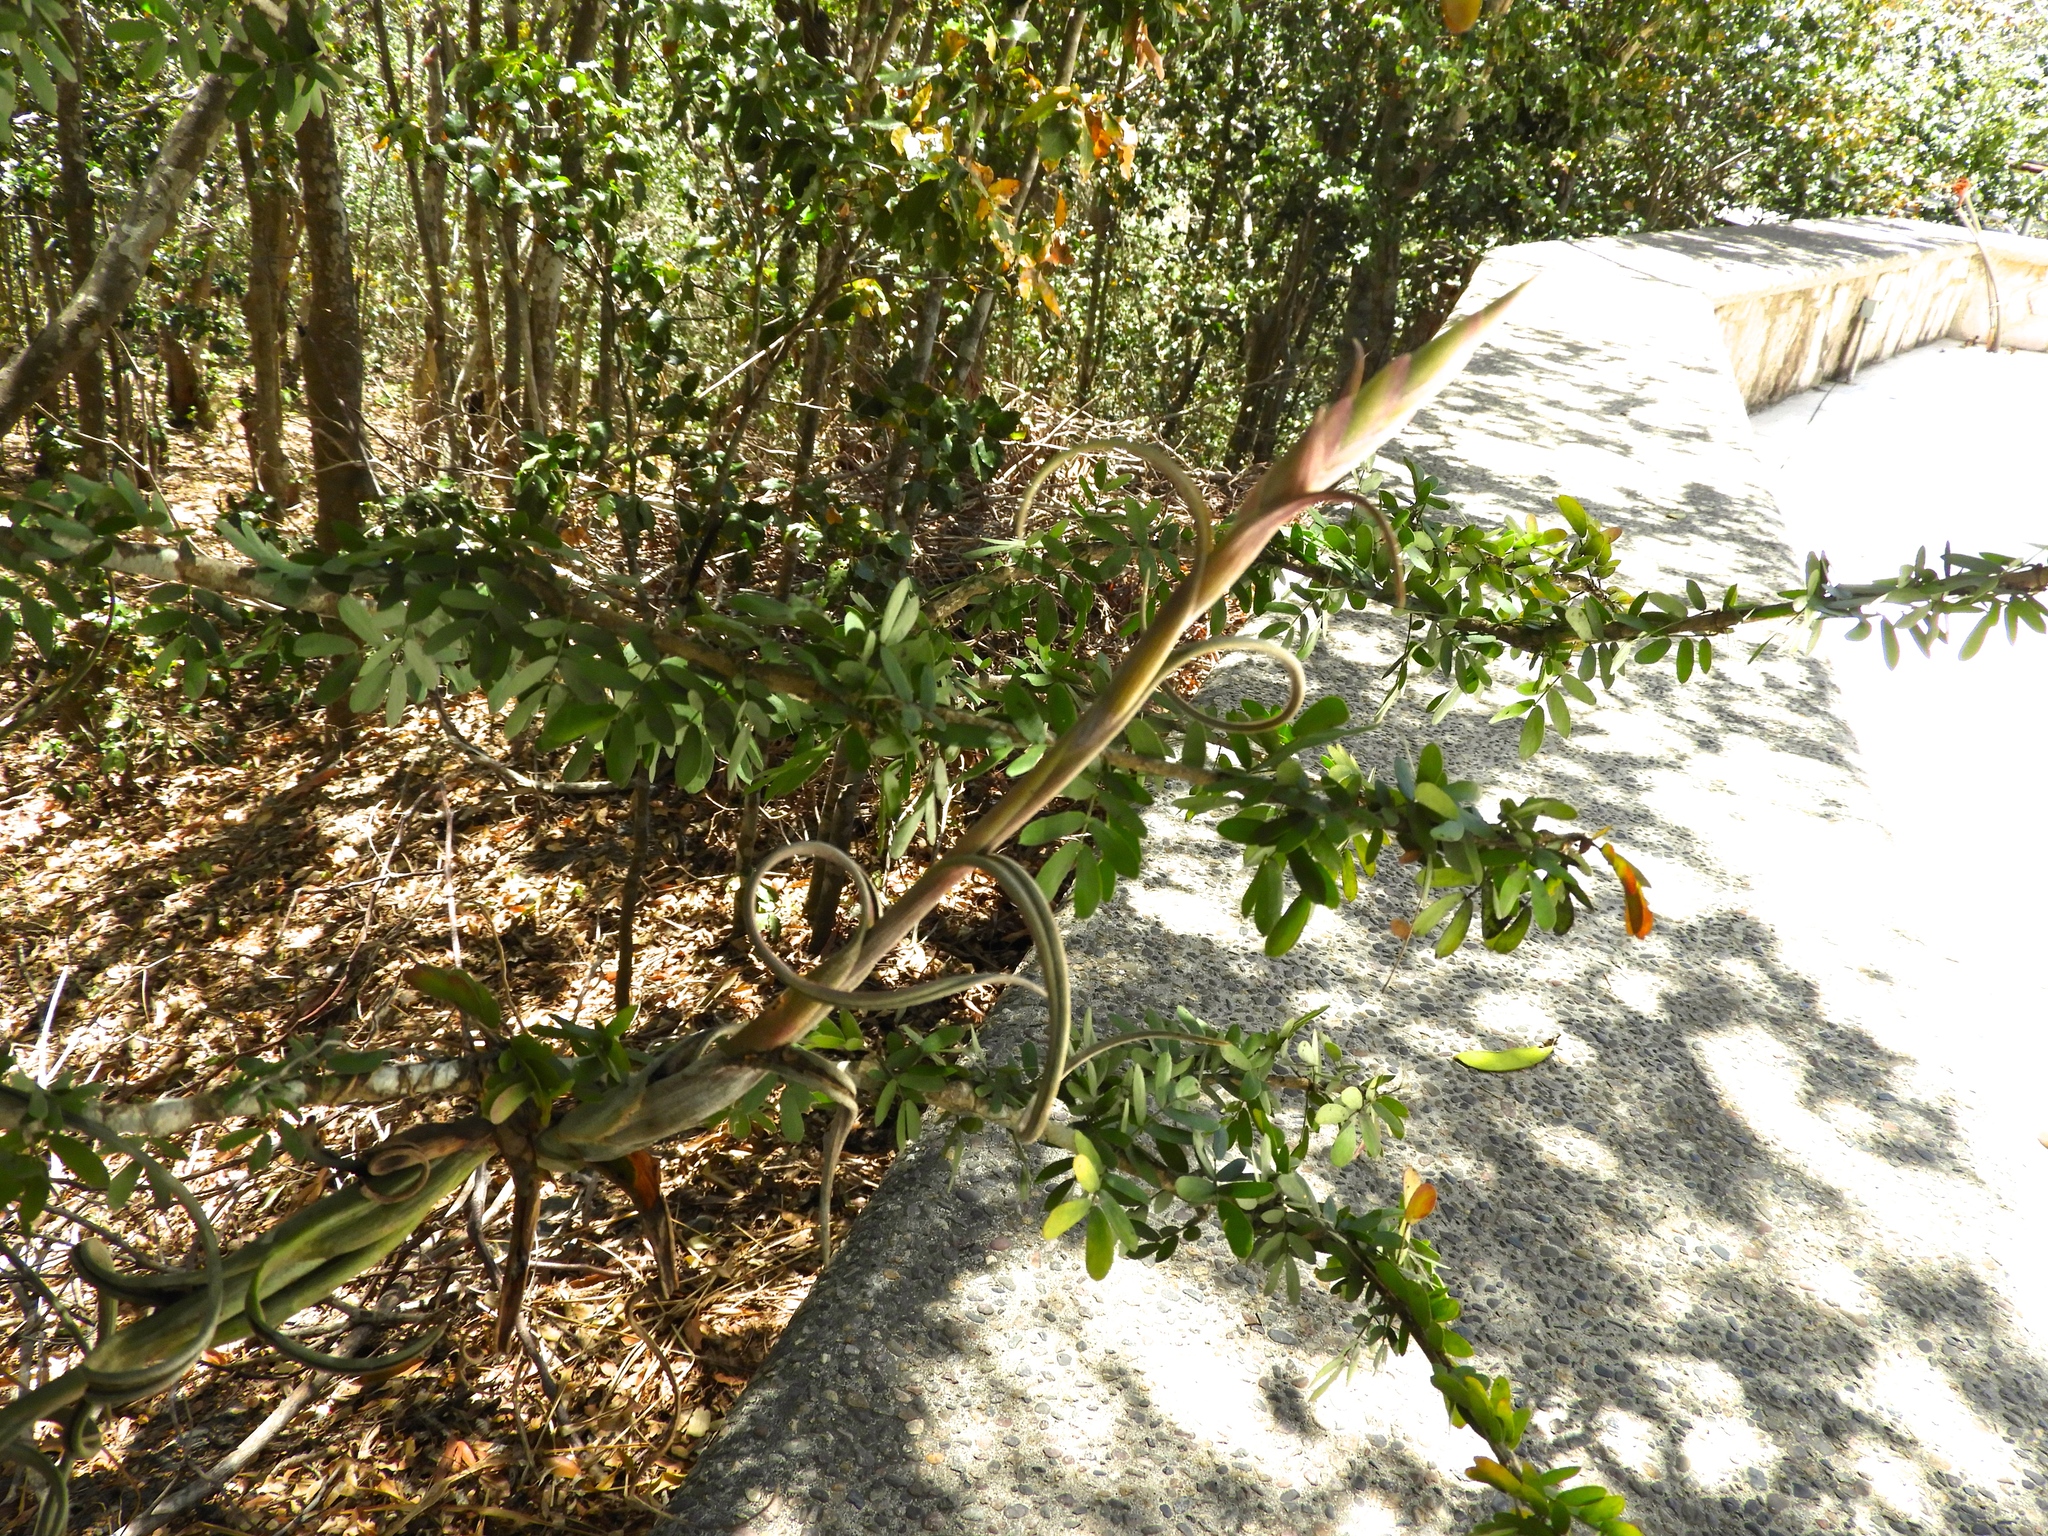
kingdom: Plantae
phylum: Tracheophyta
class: Liliopsida
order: Poales
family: Bromeliaceae
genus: Tillandsia
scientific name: Tillandsia
